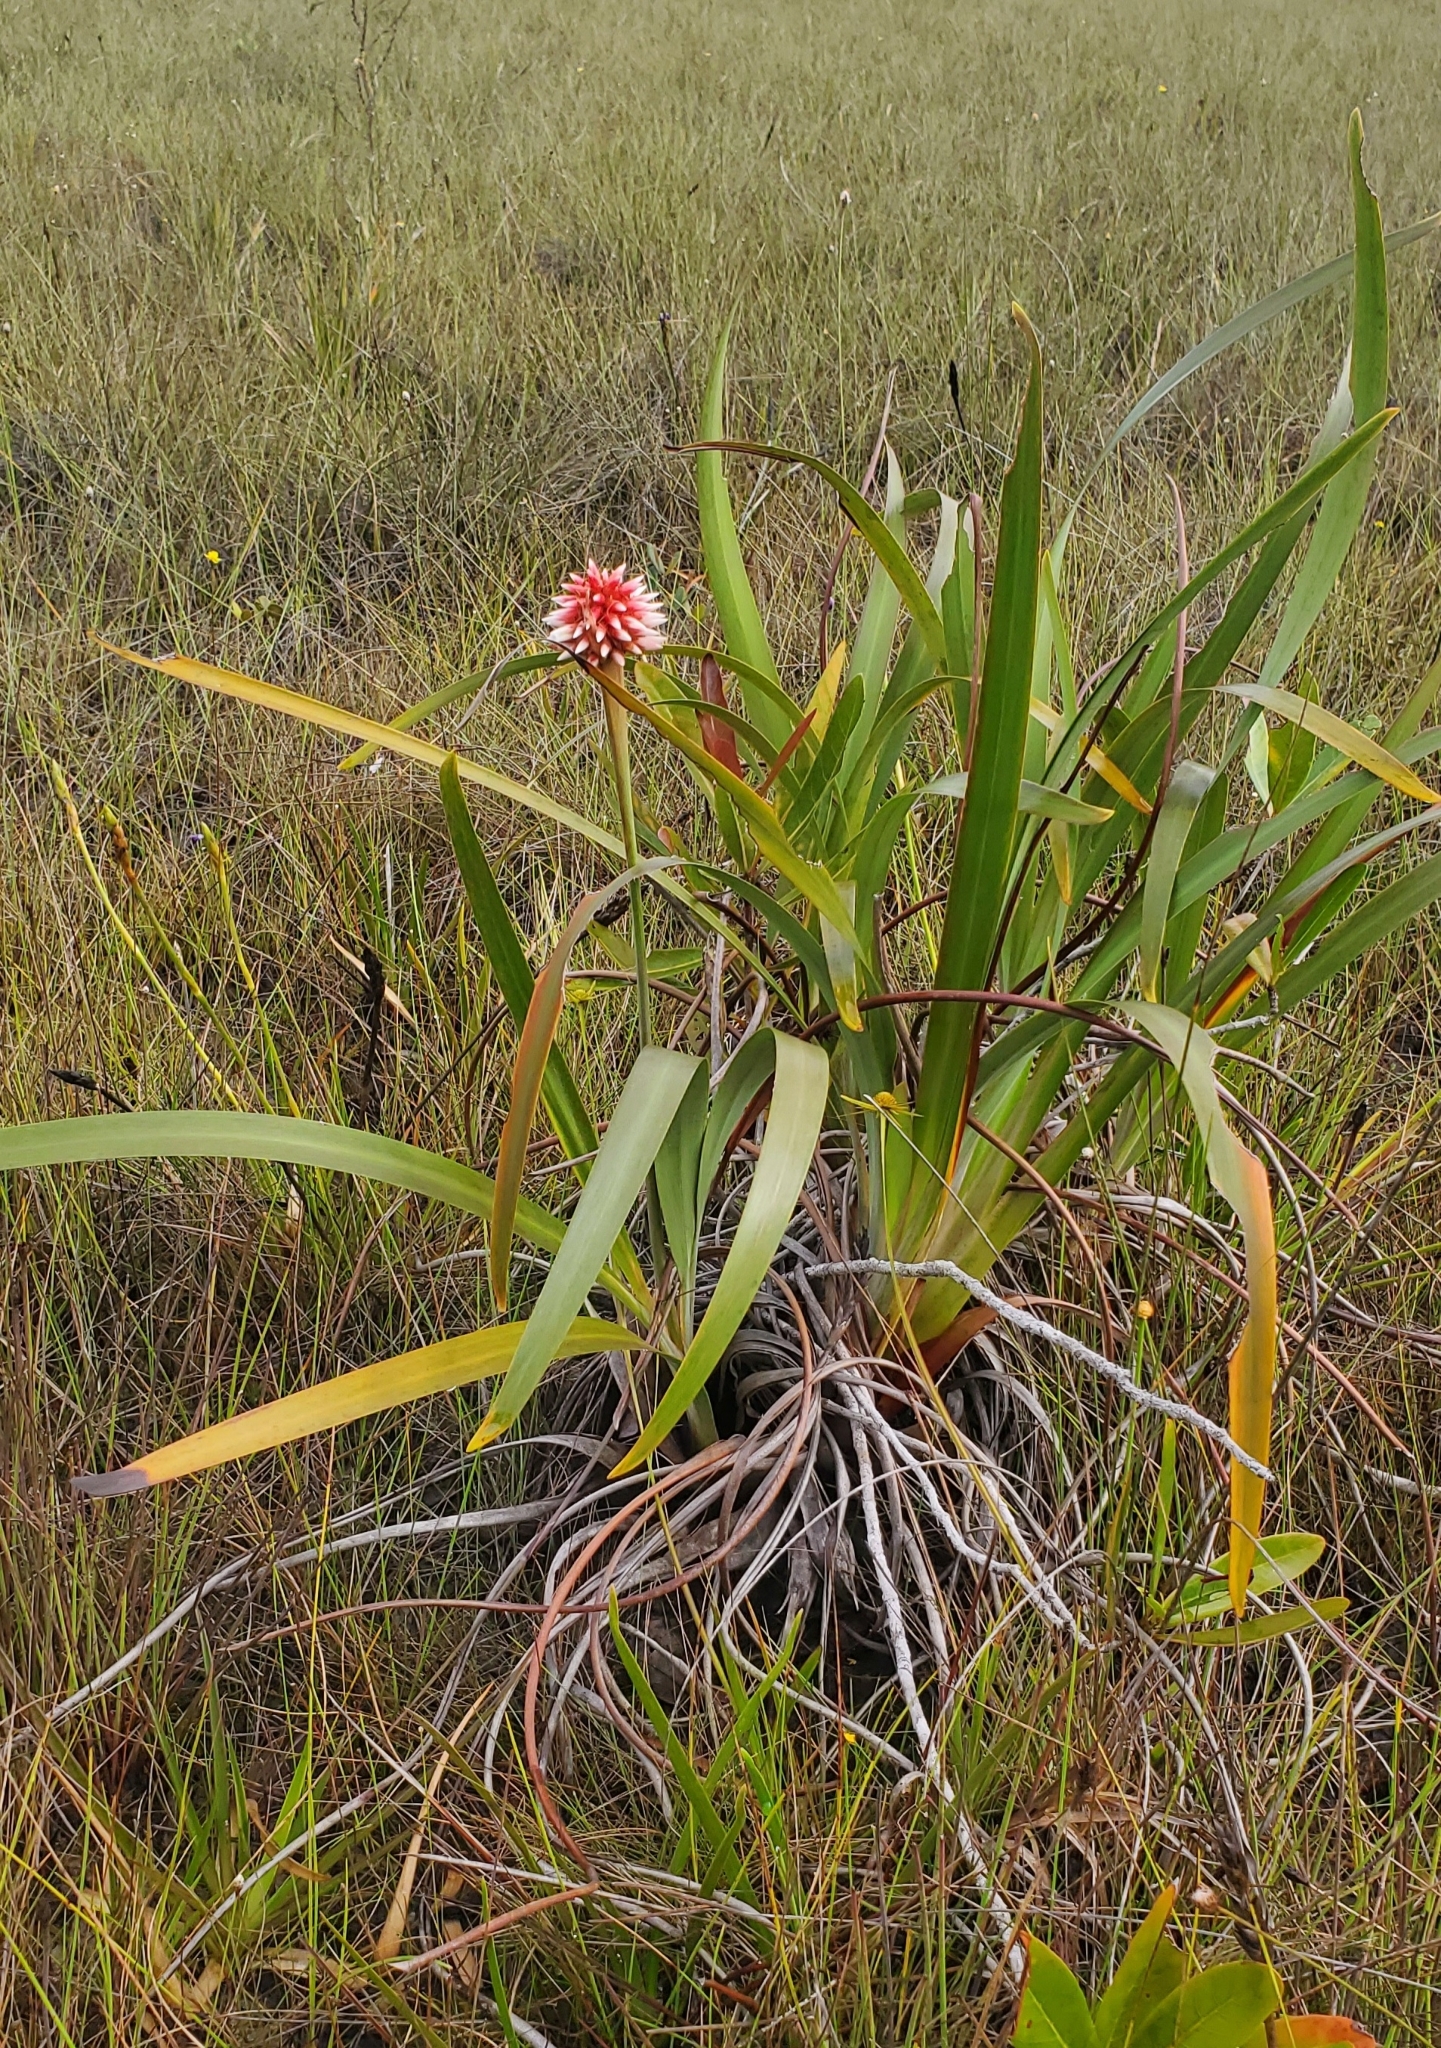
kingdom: Plantae
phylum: Tracheophyta
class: Liliopsida
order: Poales
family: Rapateaceae
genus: Guacamaya
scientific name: Guacamaya superba
